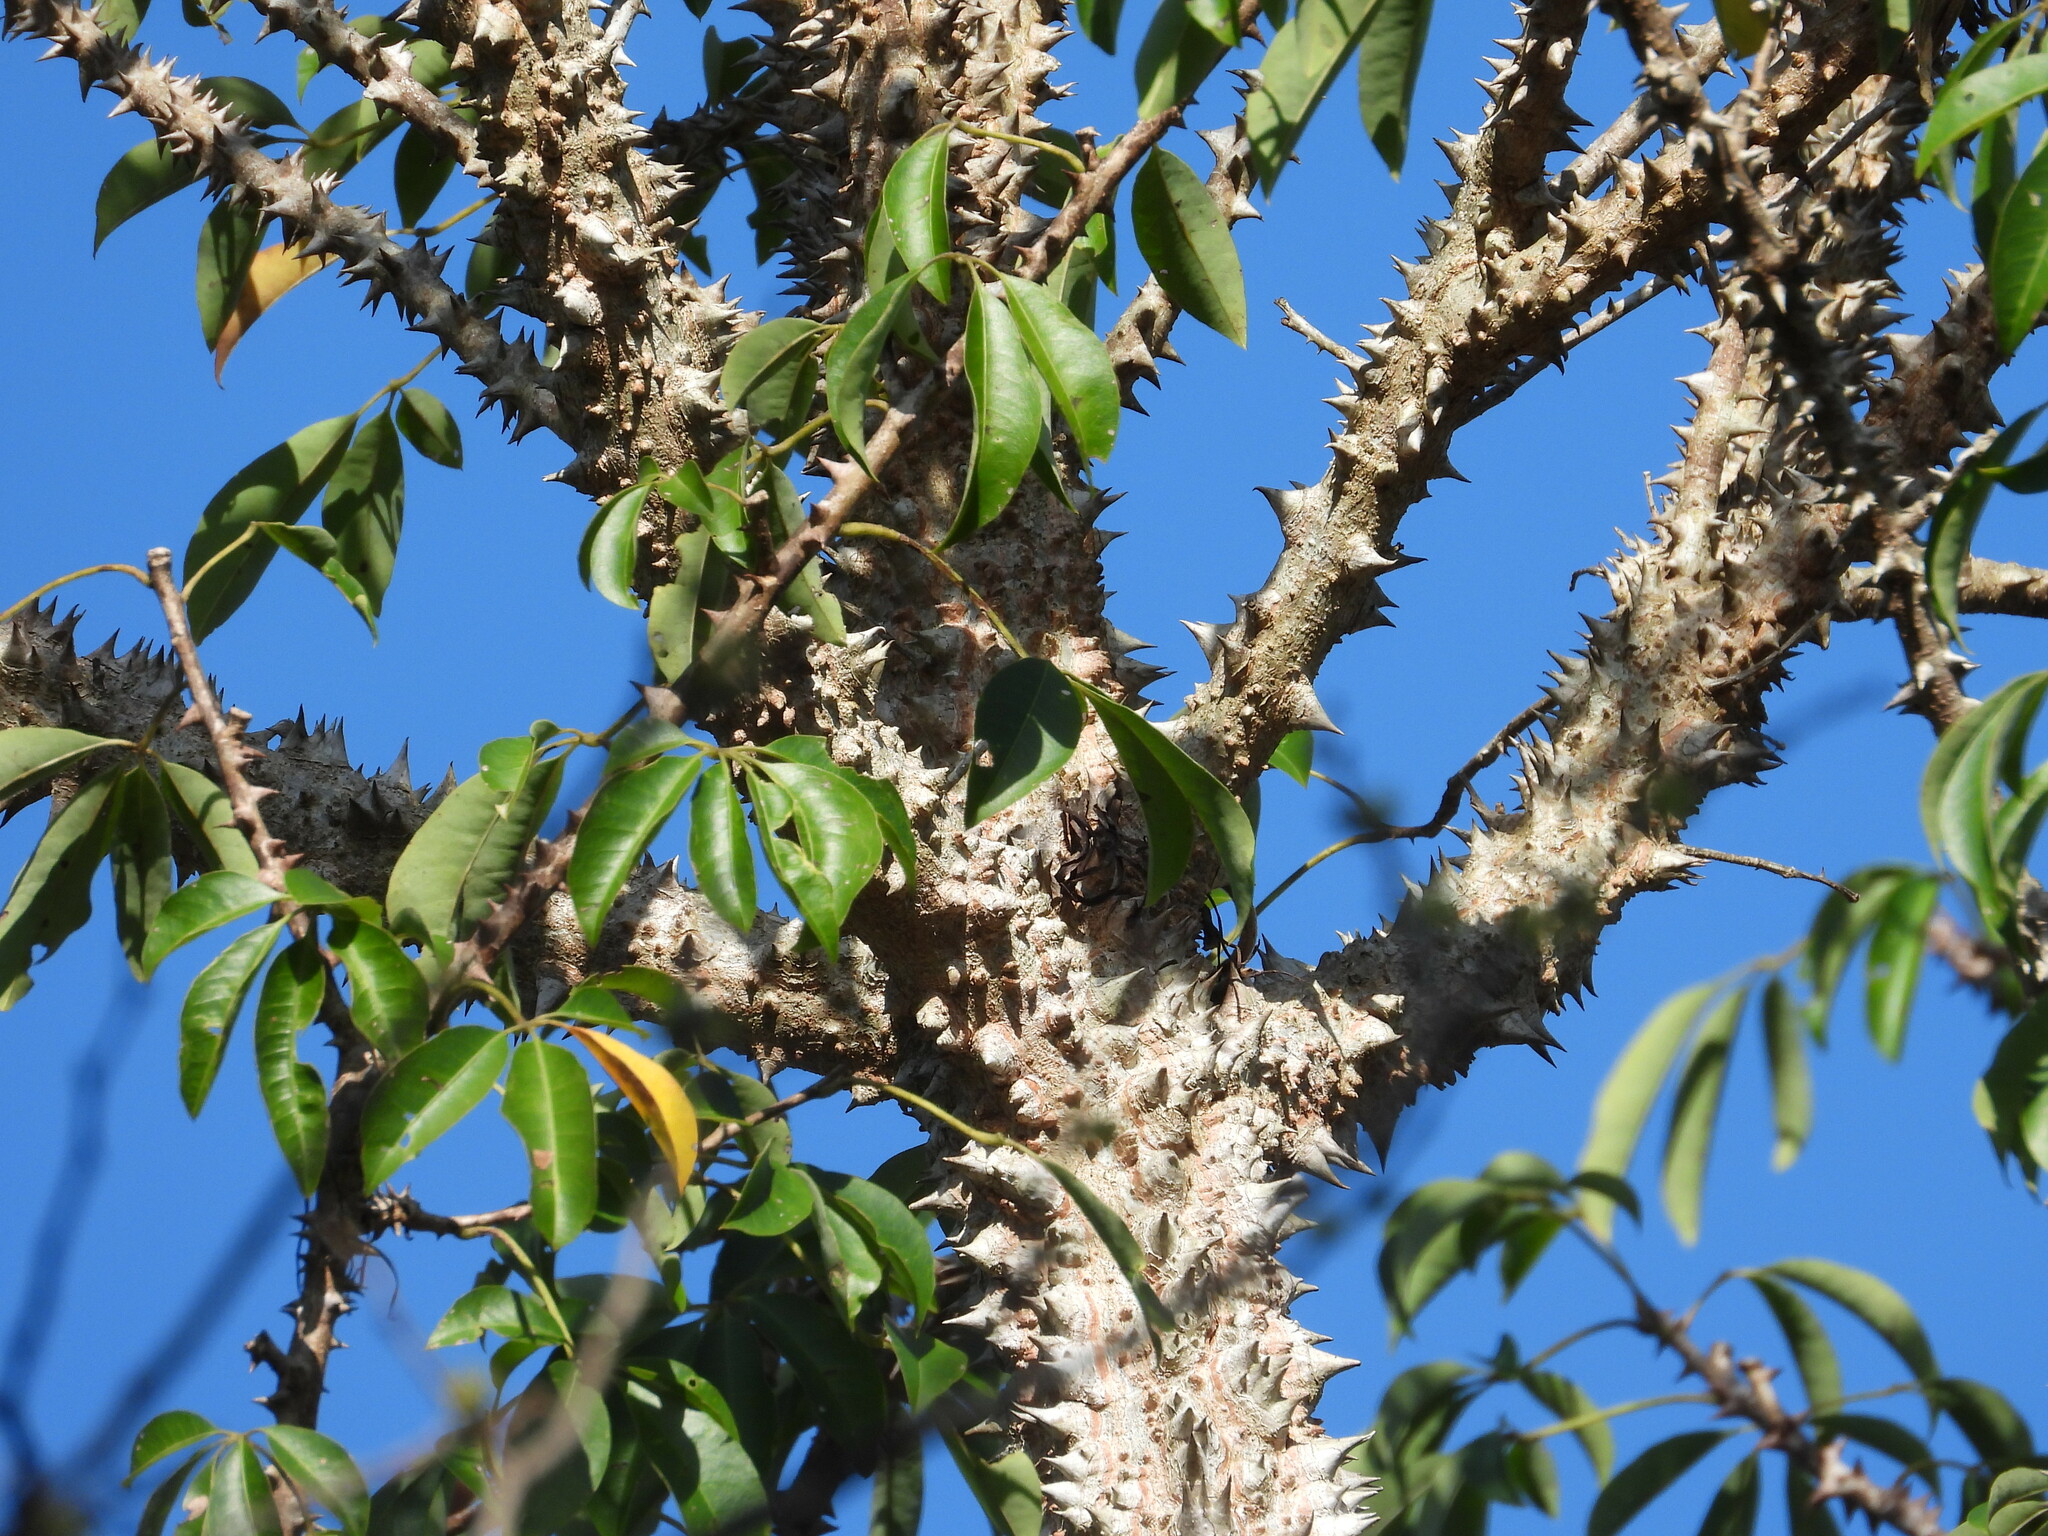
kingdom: Plantae
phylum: Tracheophyta
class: Magnoliopsida
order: Malvales
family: Malvaceae
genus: Ceiba
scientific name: Ceiba schottii
